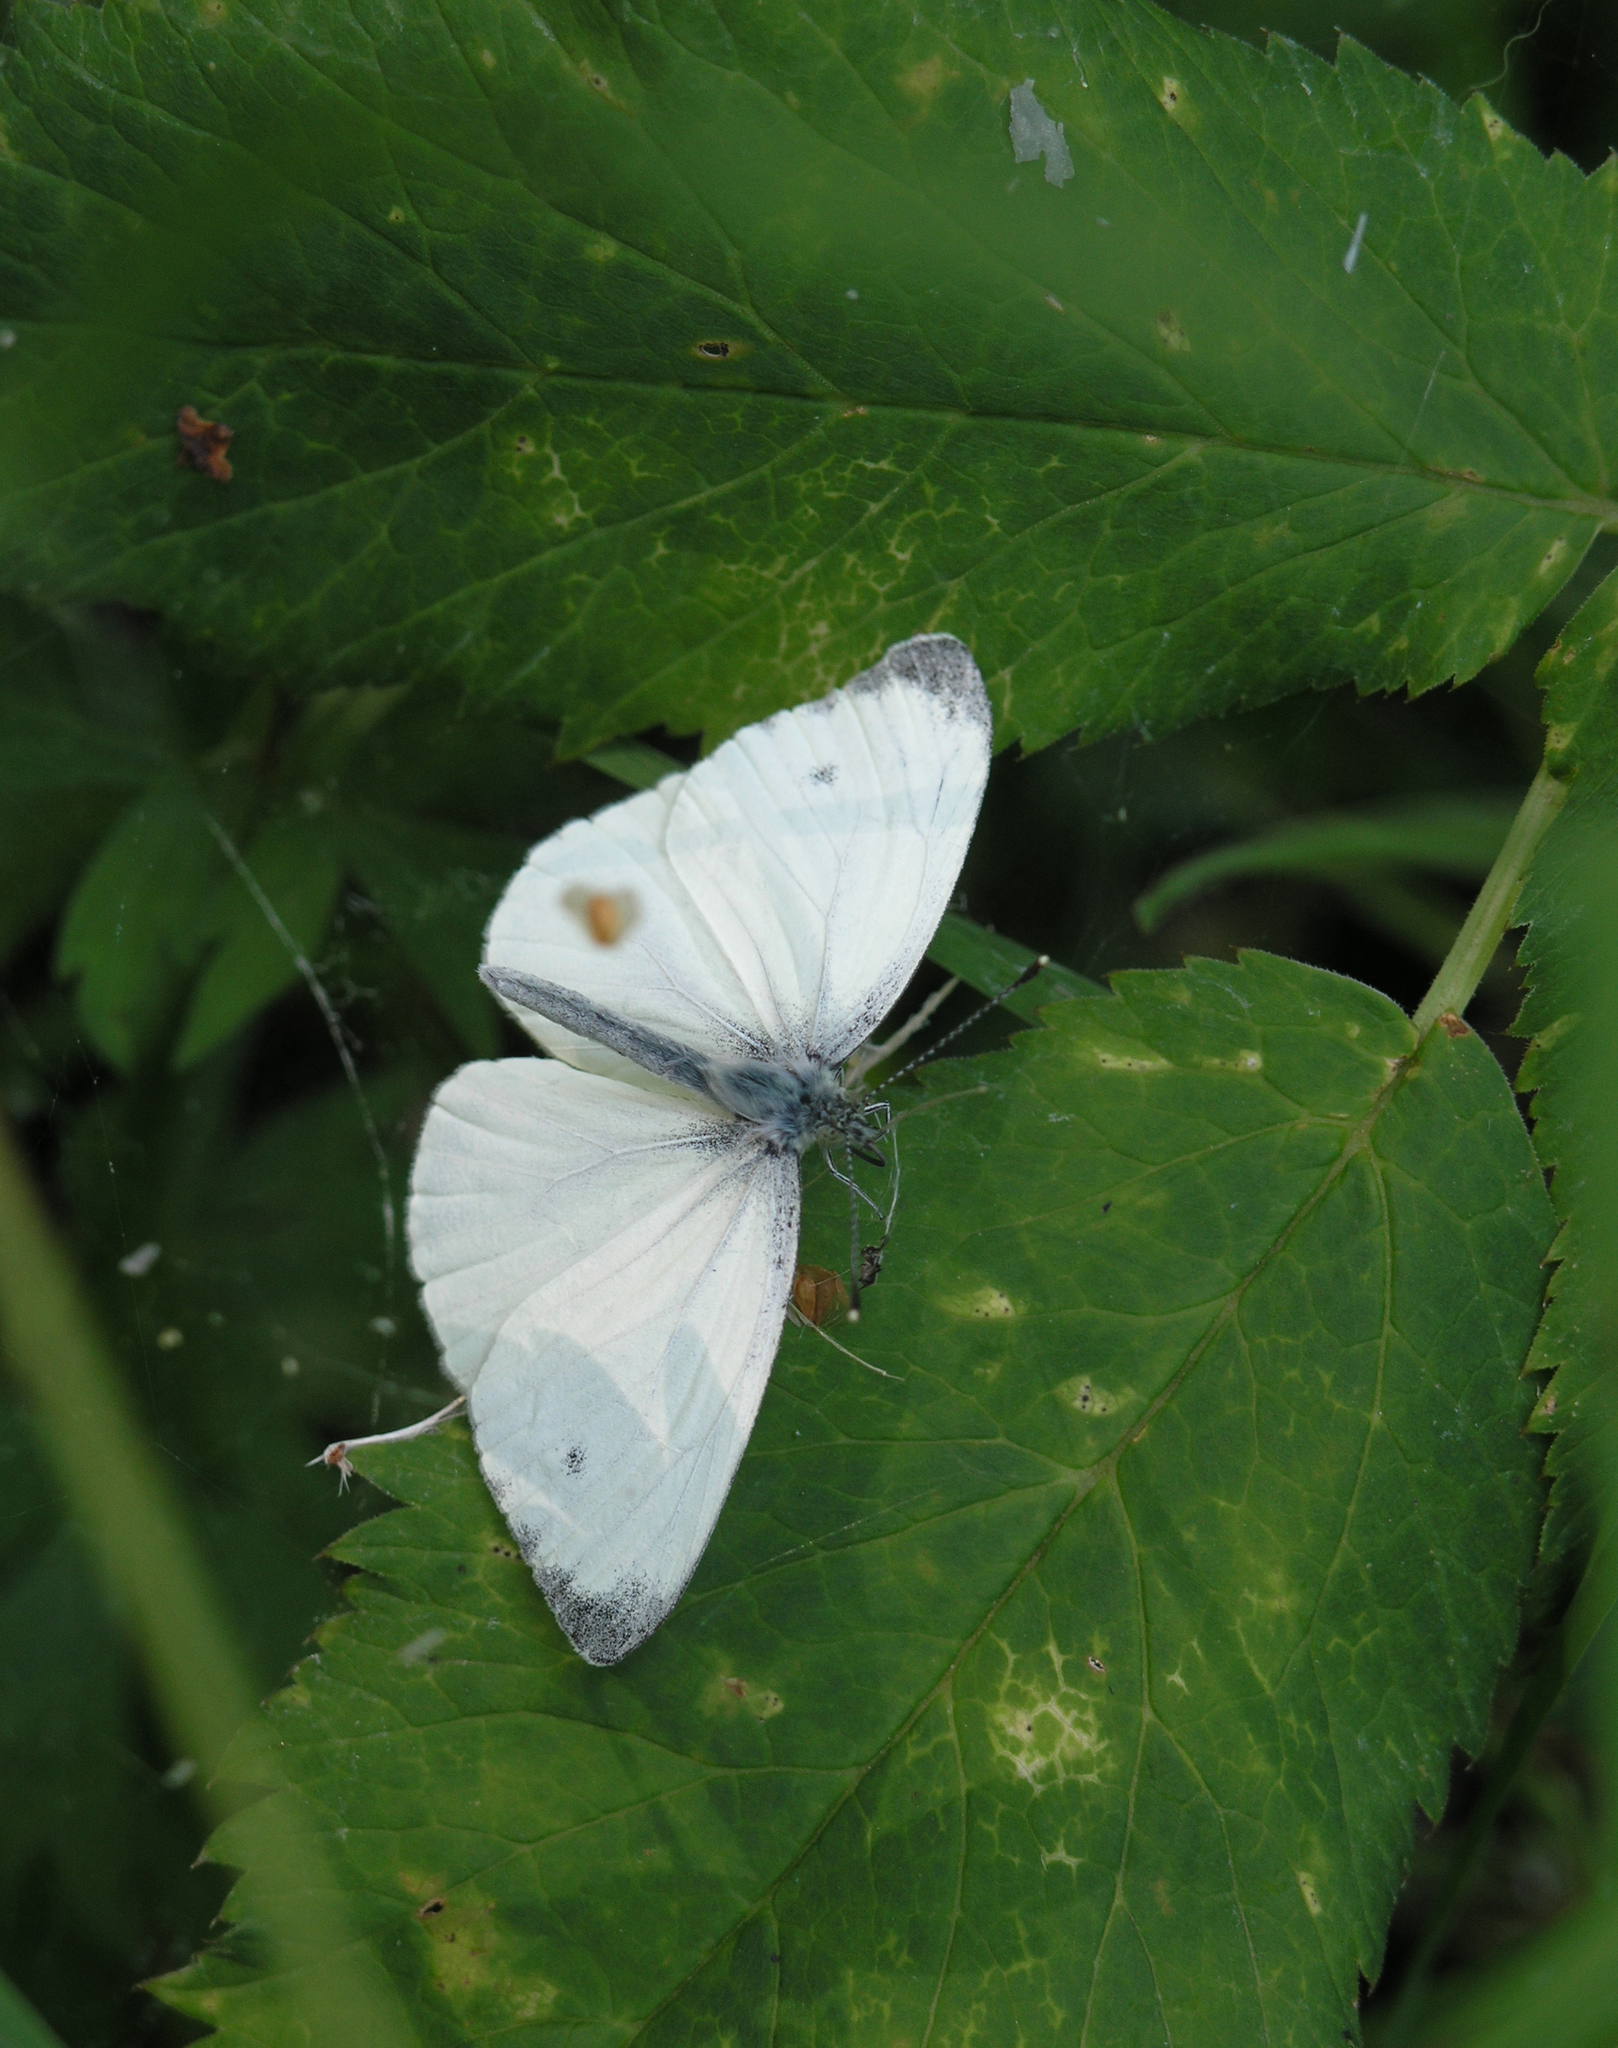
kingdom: Animalia
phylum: Arthropoda
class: Insecta
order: Lepidoptera
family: Pieridae
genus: Pieris
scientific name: Pieris napi
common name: Green-veined white
